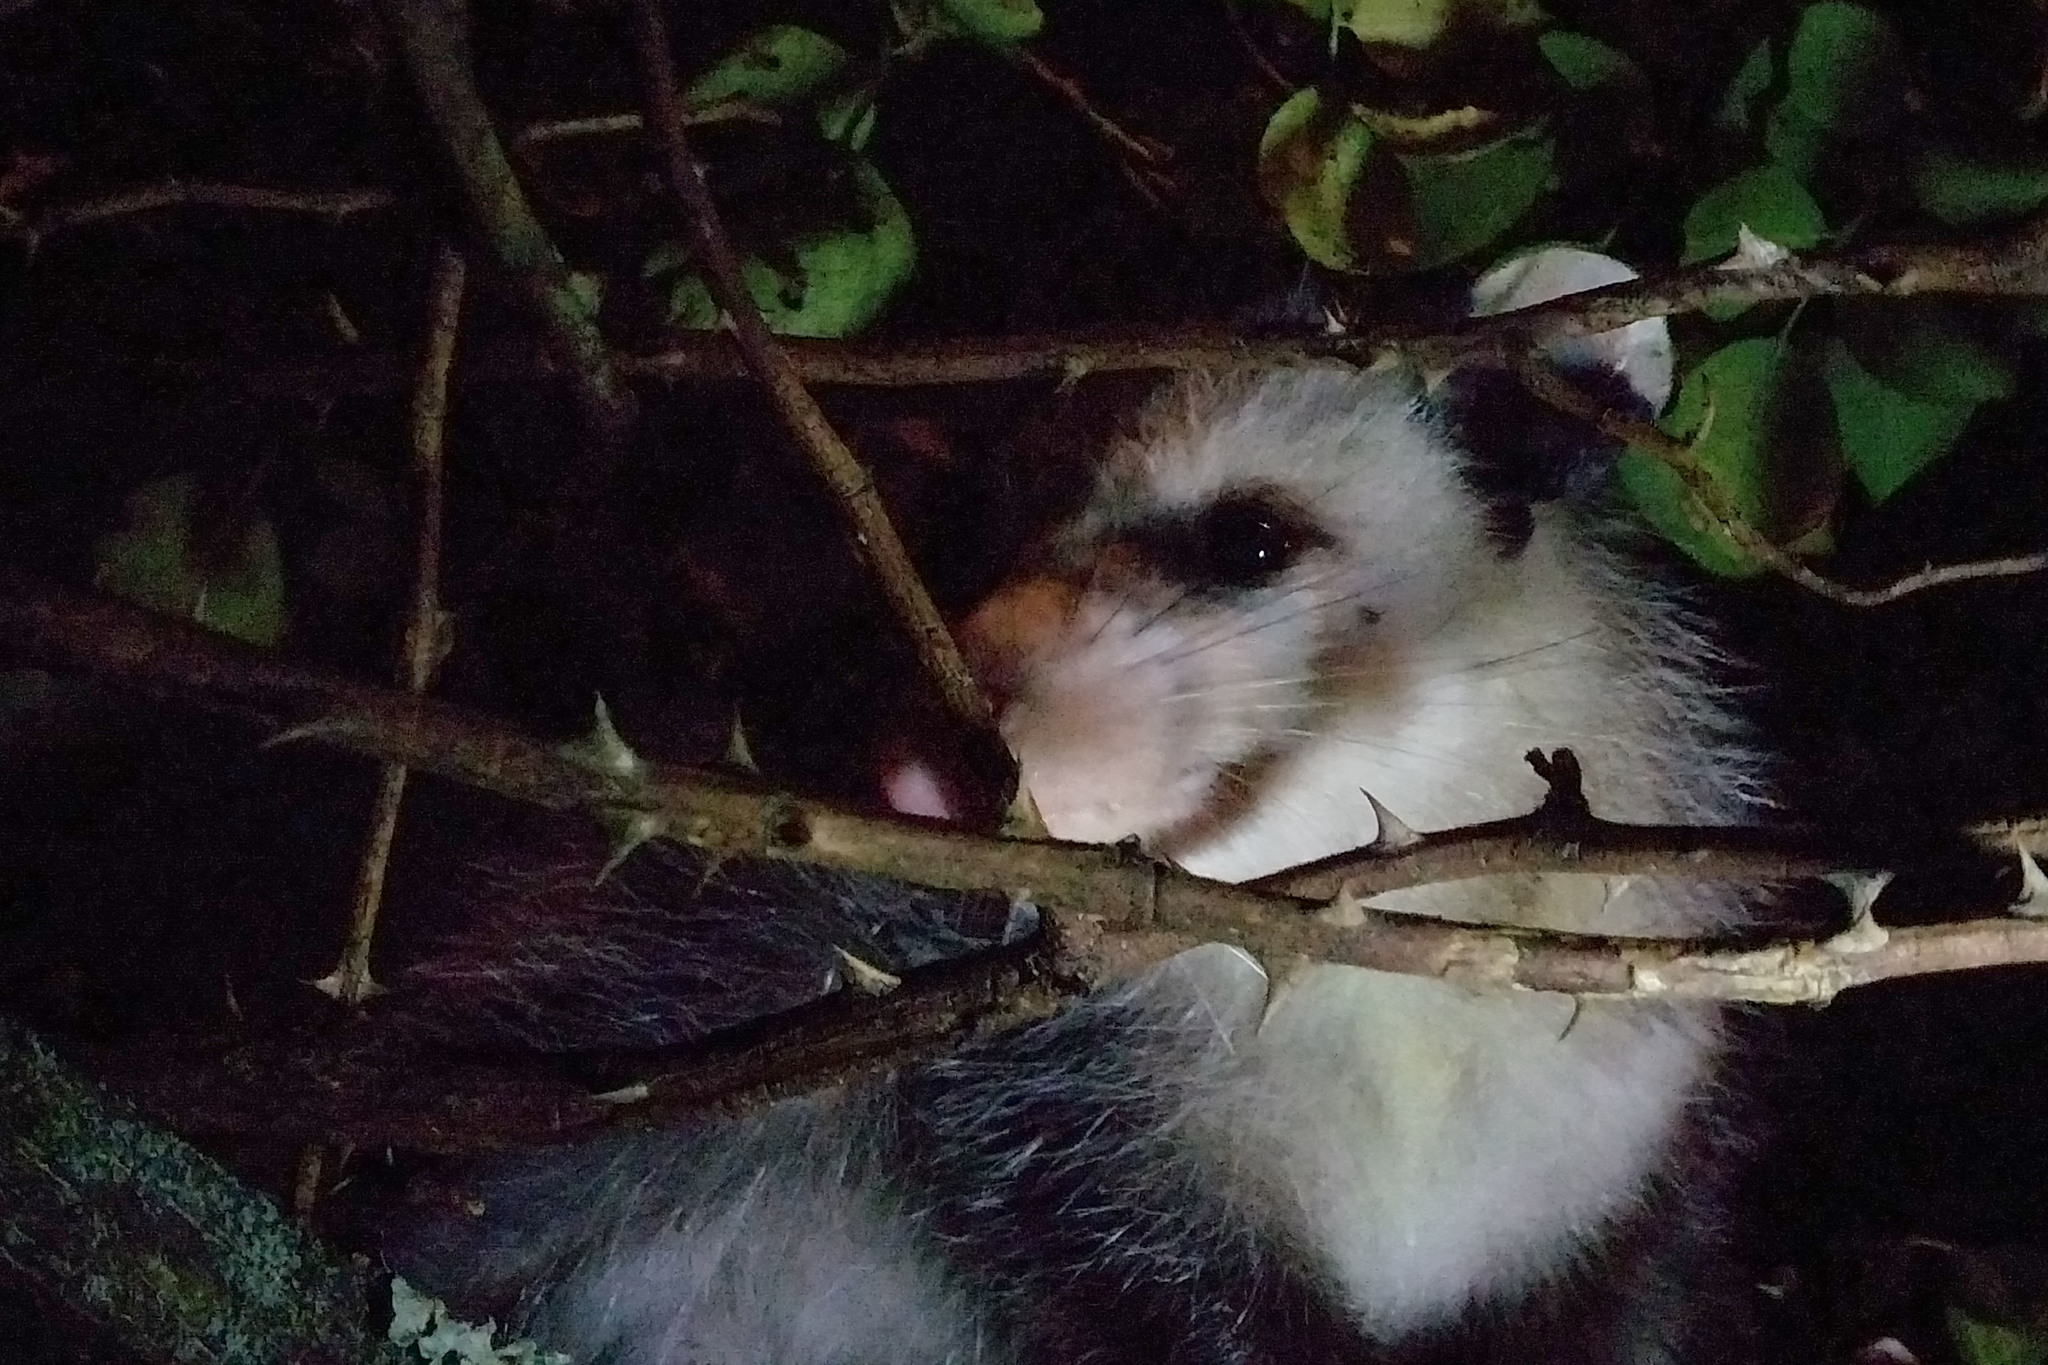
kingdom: Animalia
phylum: Chordata
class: Mammalia
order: Didelphimorphia
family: Didelphidae
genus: Didelphis
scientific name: Didelphis virginiana
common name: Virginia opossum
